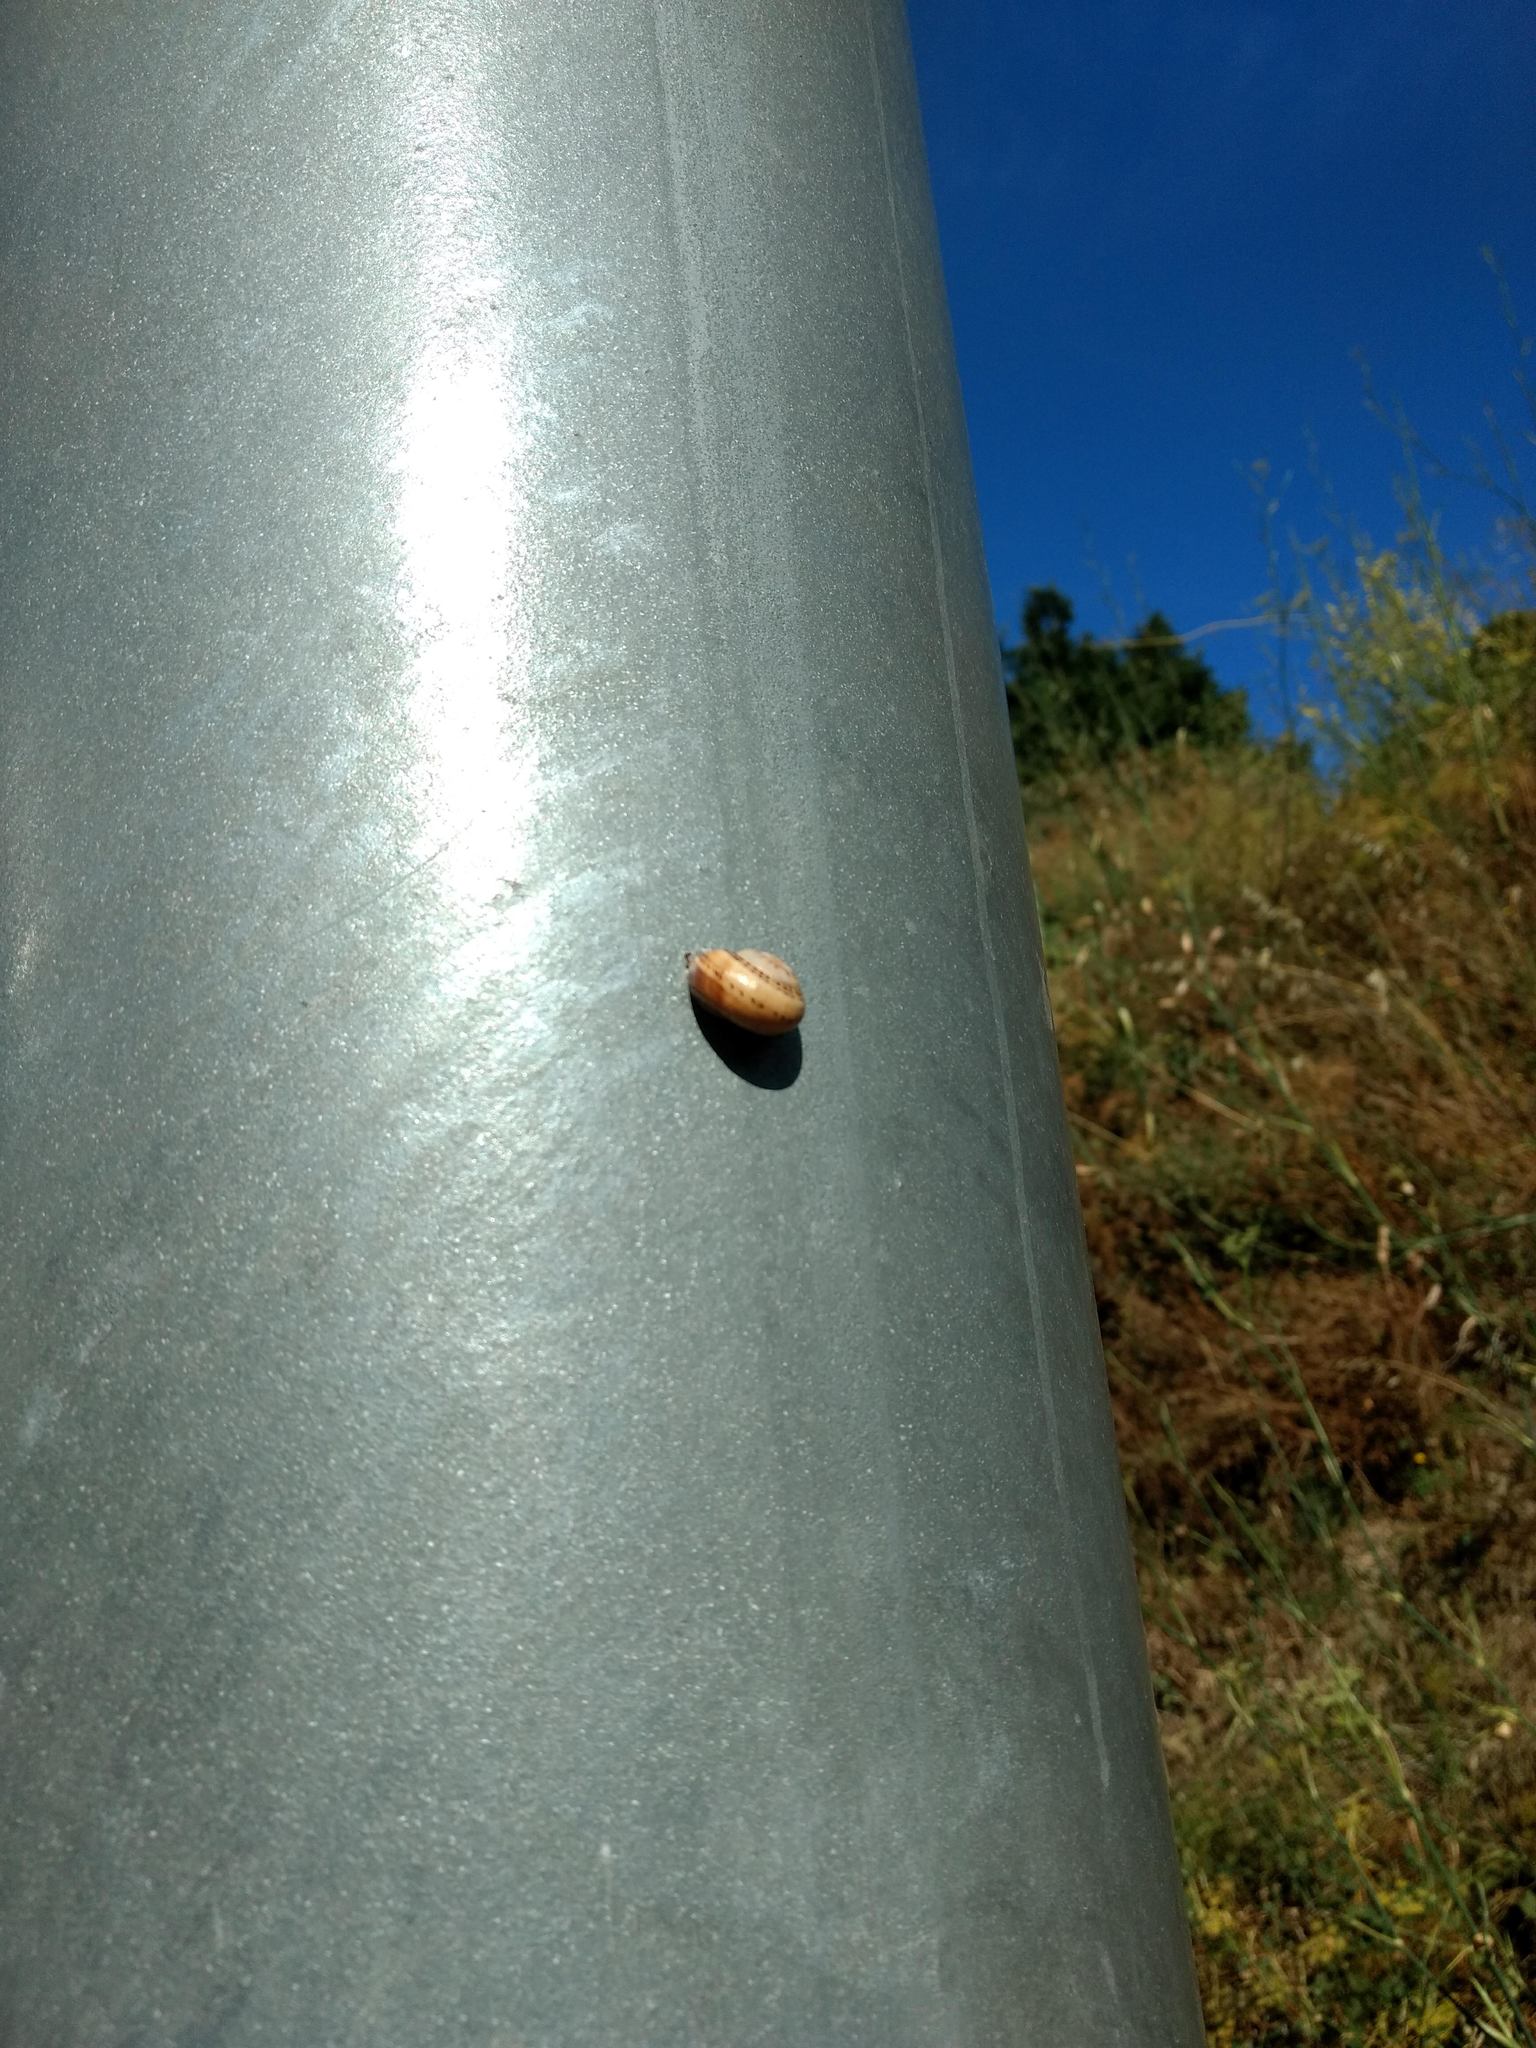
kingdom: Animalia
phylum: Mollusca
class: Gastropoda
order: Stylommatophora
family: Helicidae
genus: Theba
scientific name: Theba pisana
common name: White snail
